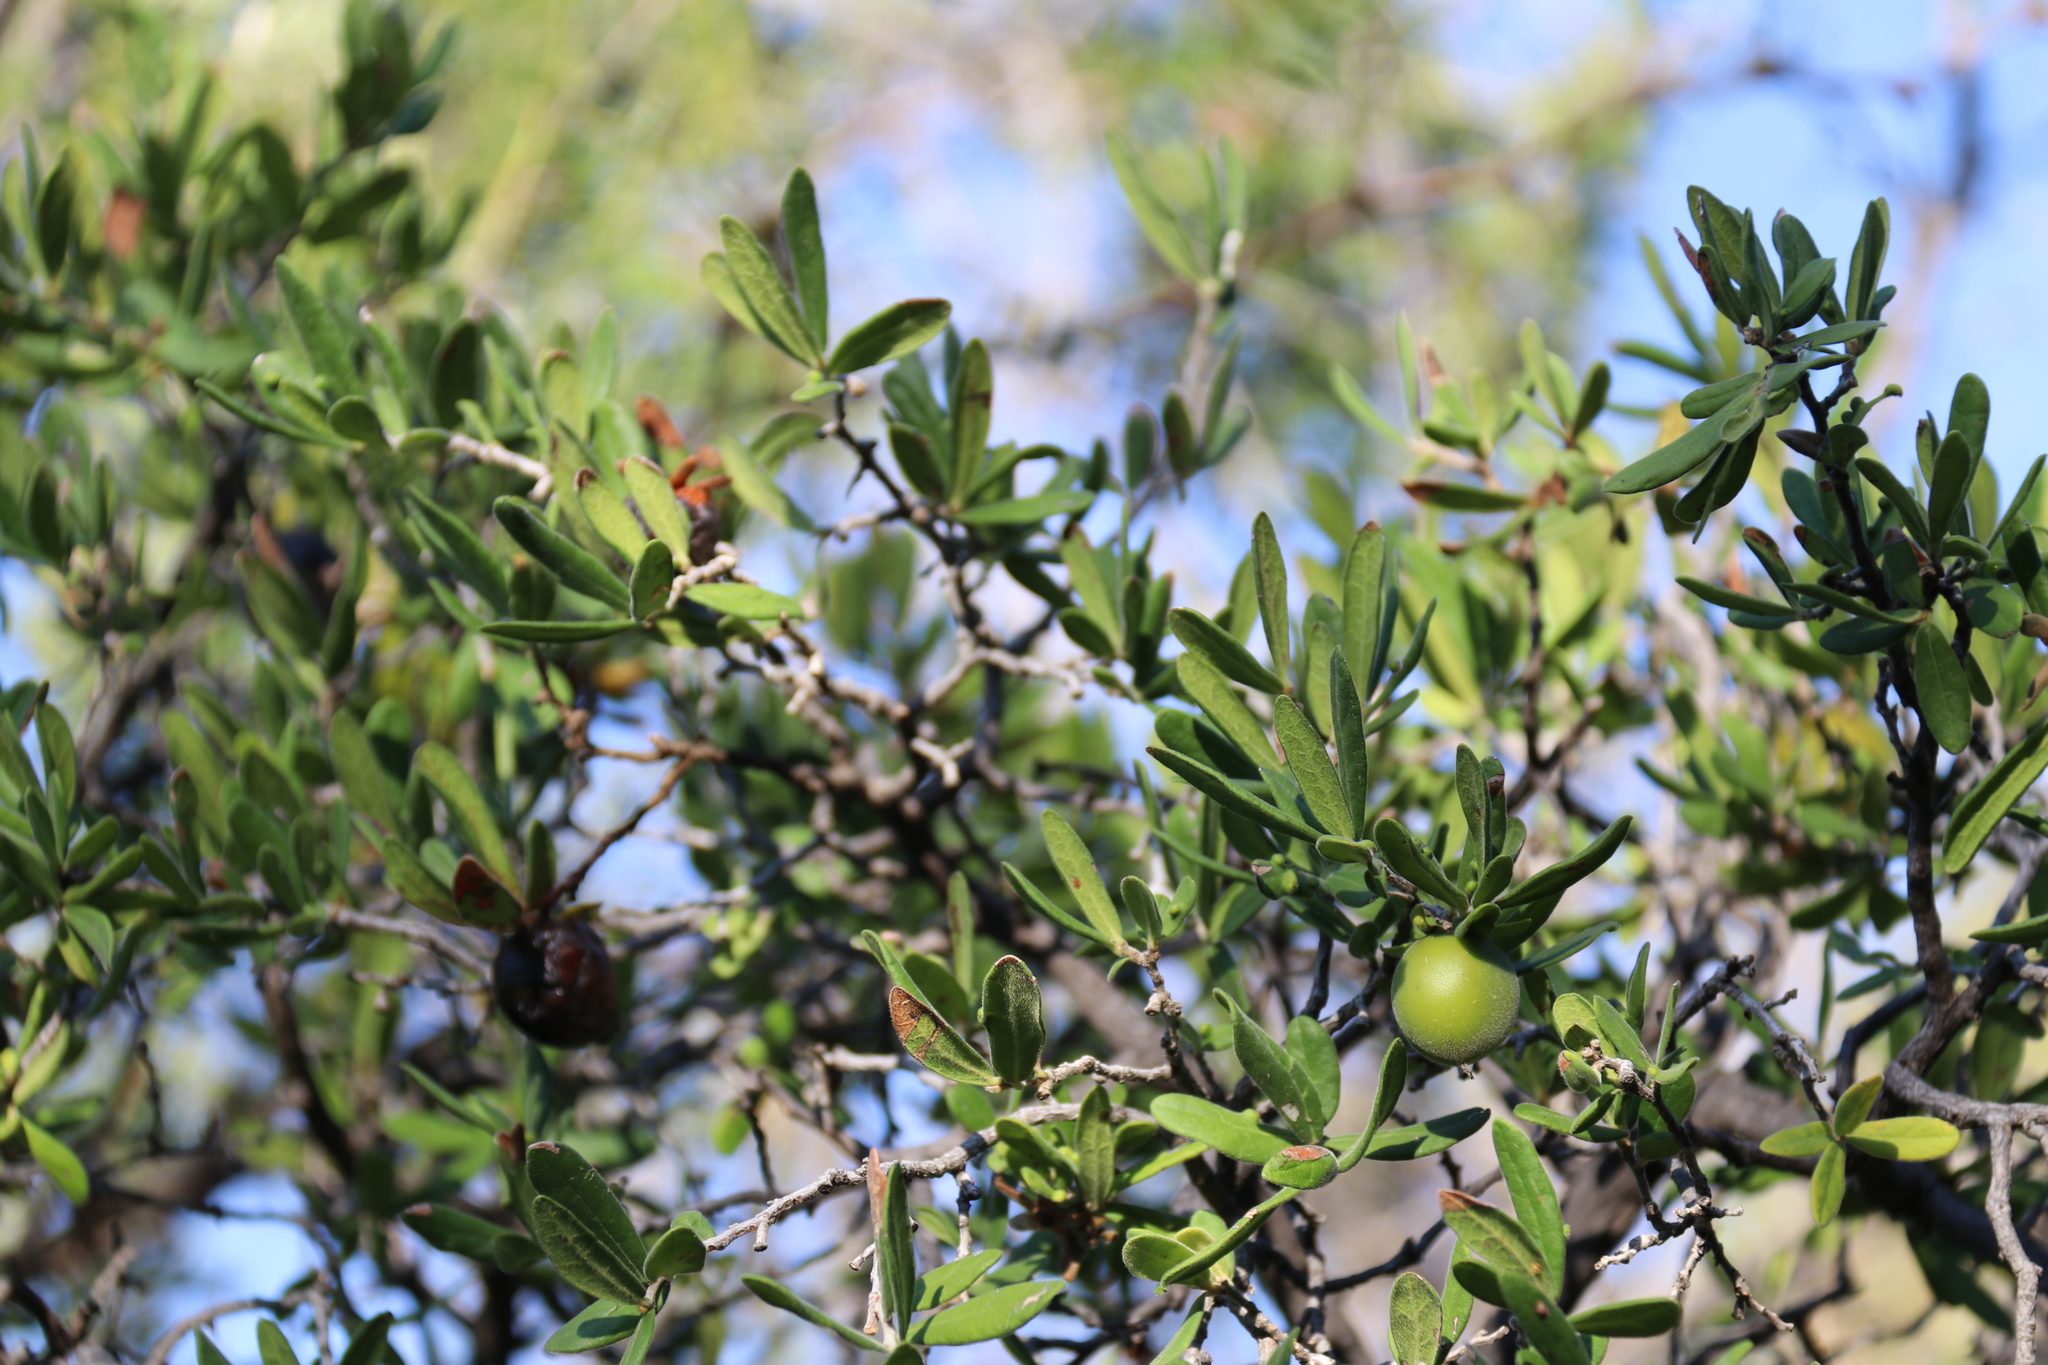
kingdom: Plantae
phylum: Tracheophyta
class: Magnoliopsida
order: Ericales
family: Ebenaceae
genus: Diospyros
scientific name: Diospyros texana
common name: Texas persimmon
